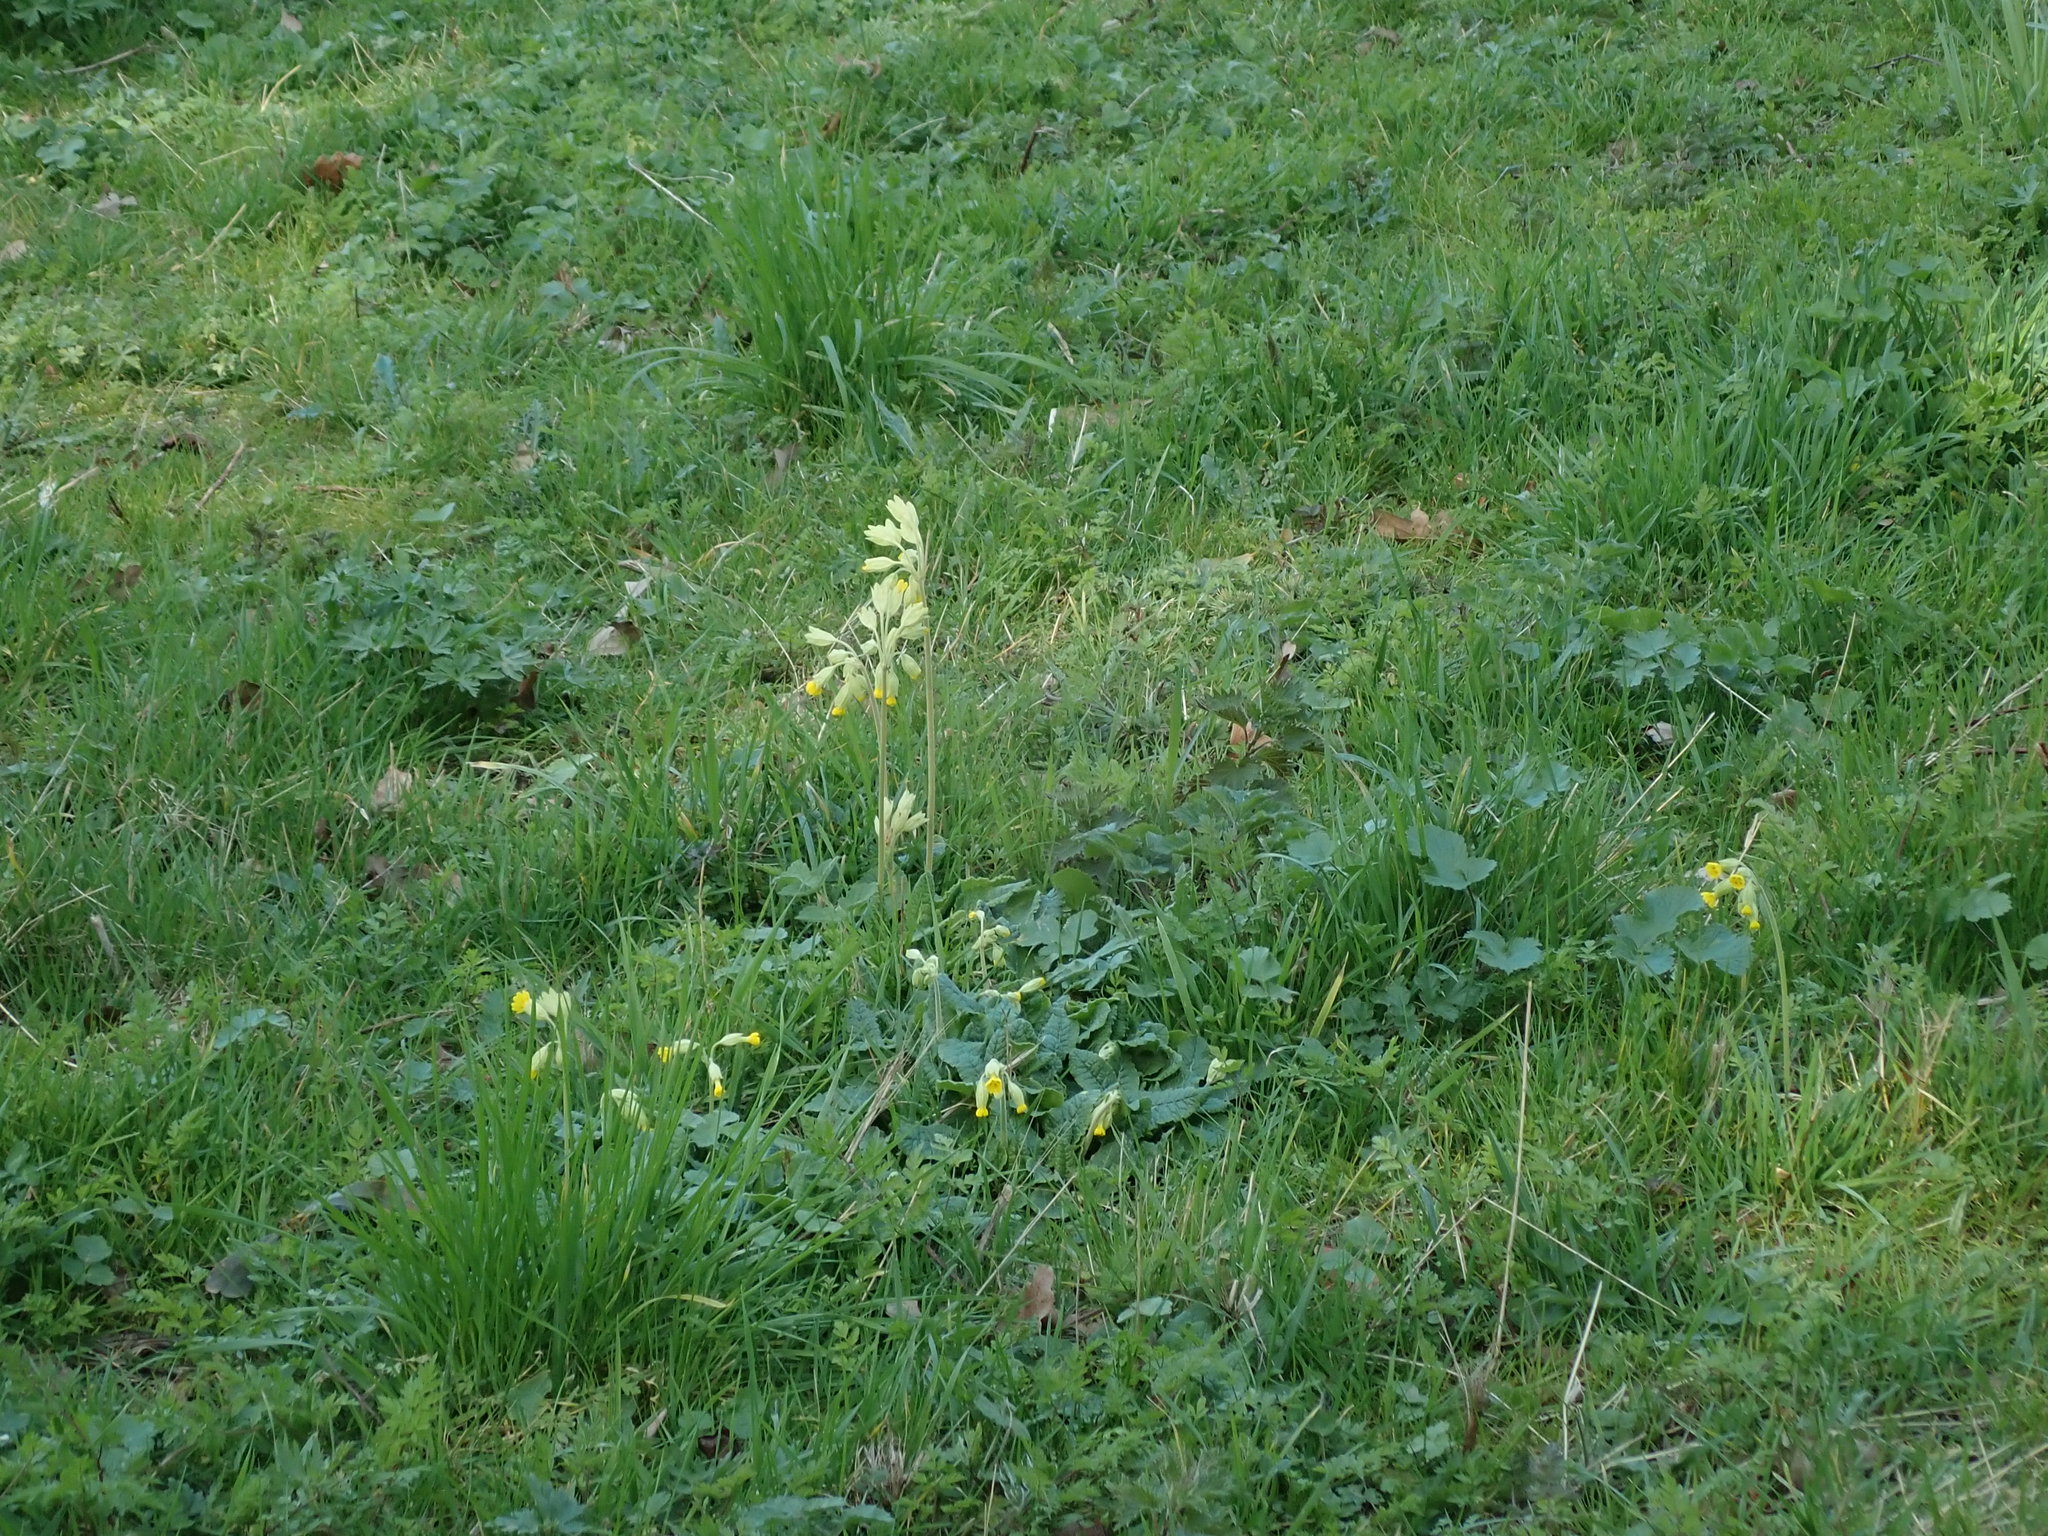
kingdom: Plantae
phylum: Tracheophyta
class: Magnoliopsida
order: Ericales
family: Primulaceae
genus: Primula
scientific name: Primula veris
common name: Cowslip
